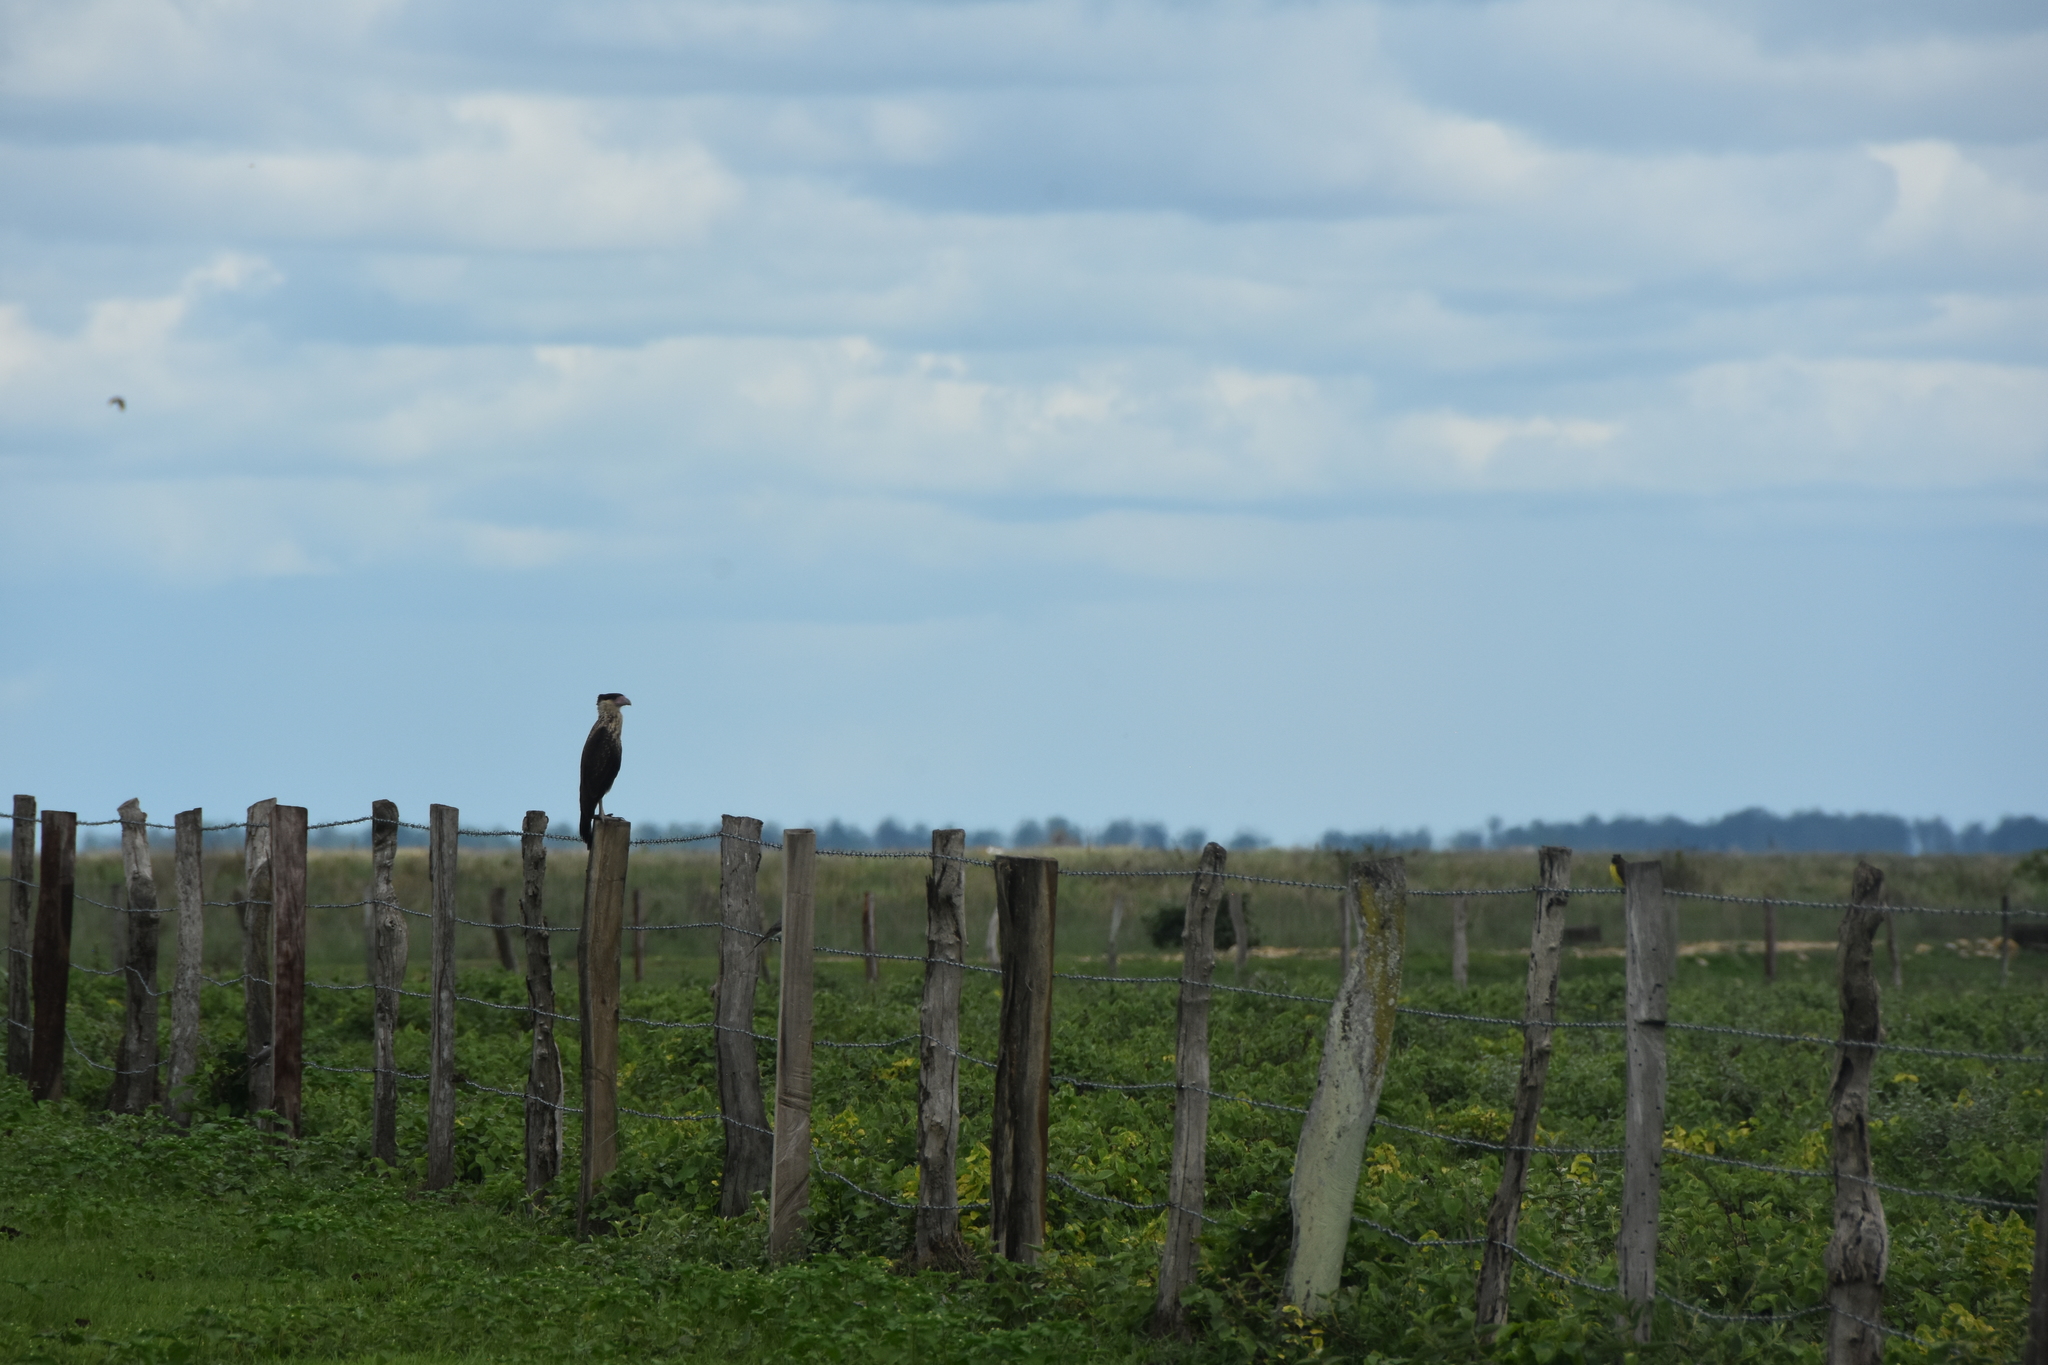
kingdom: Animalia
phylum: Chordata
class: Aves
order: Falconiformes
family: Falconidae
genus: Caracara
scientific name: Caracara plancus
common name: Southern caracara
